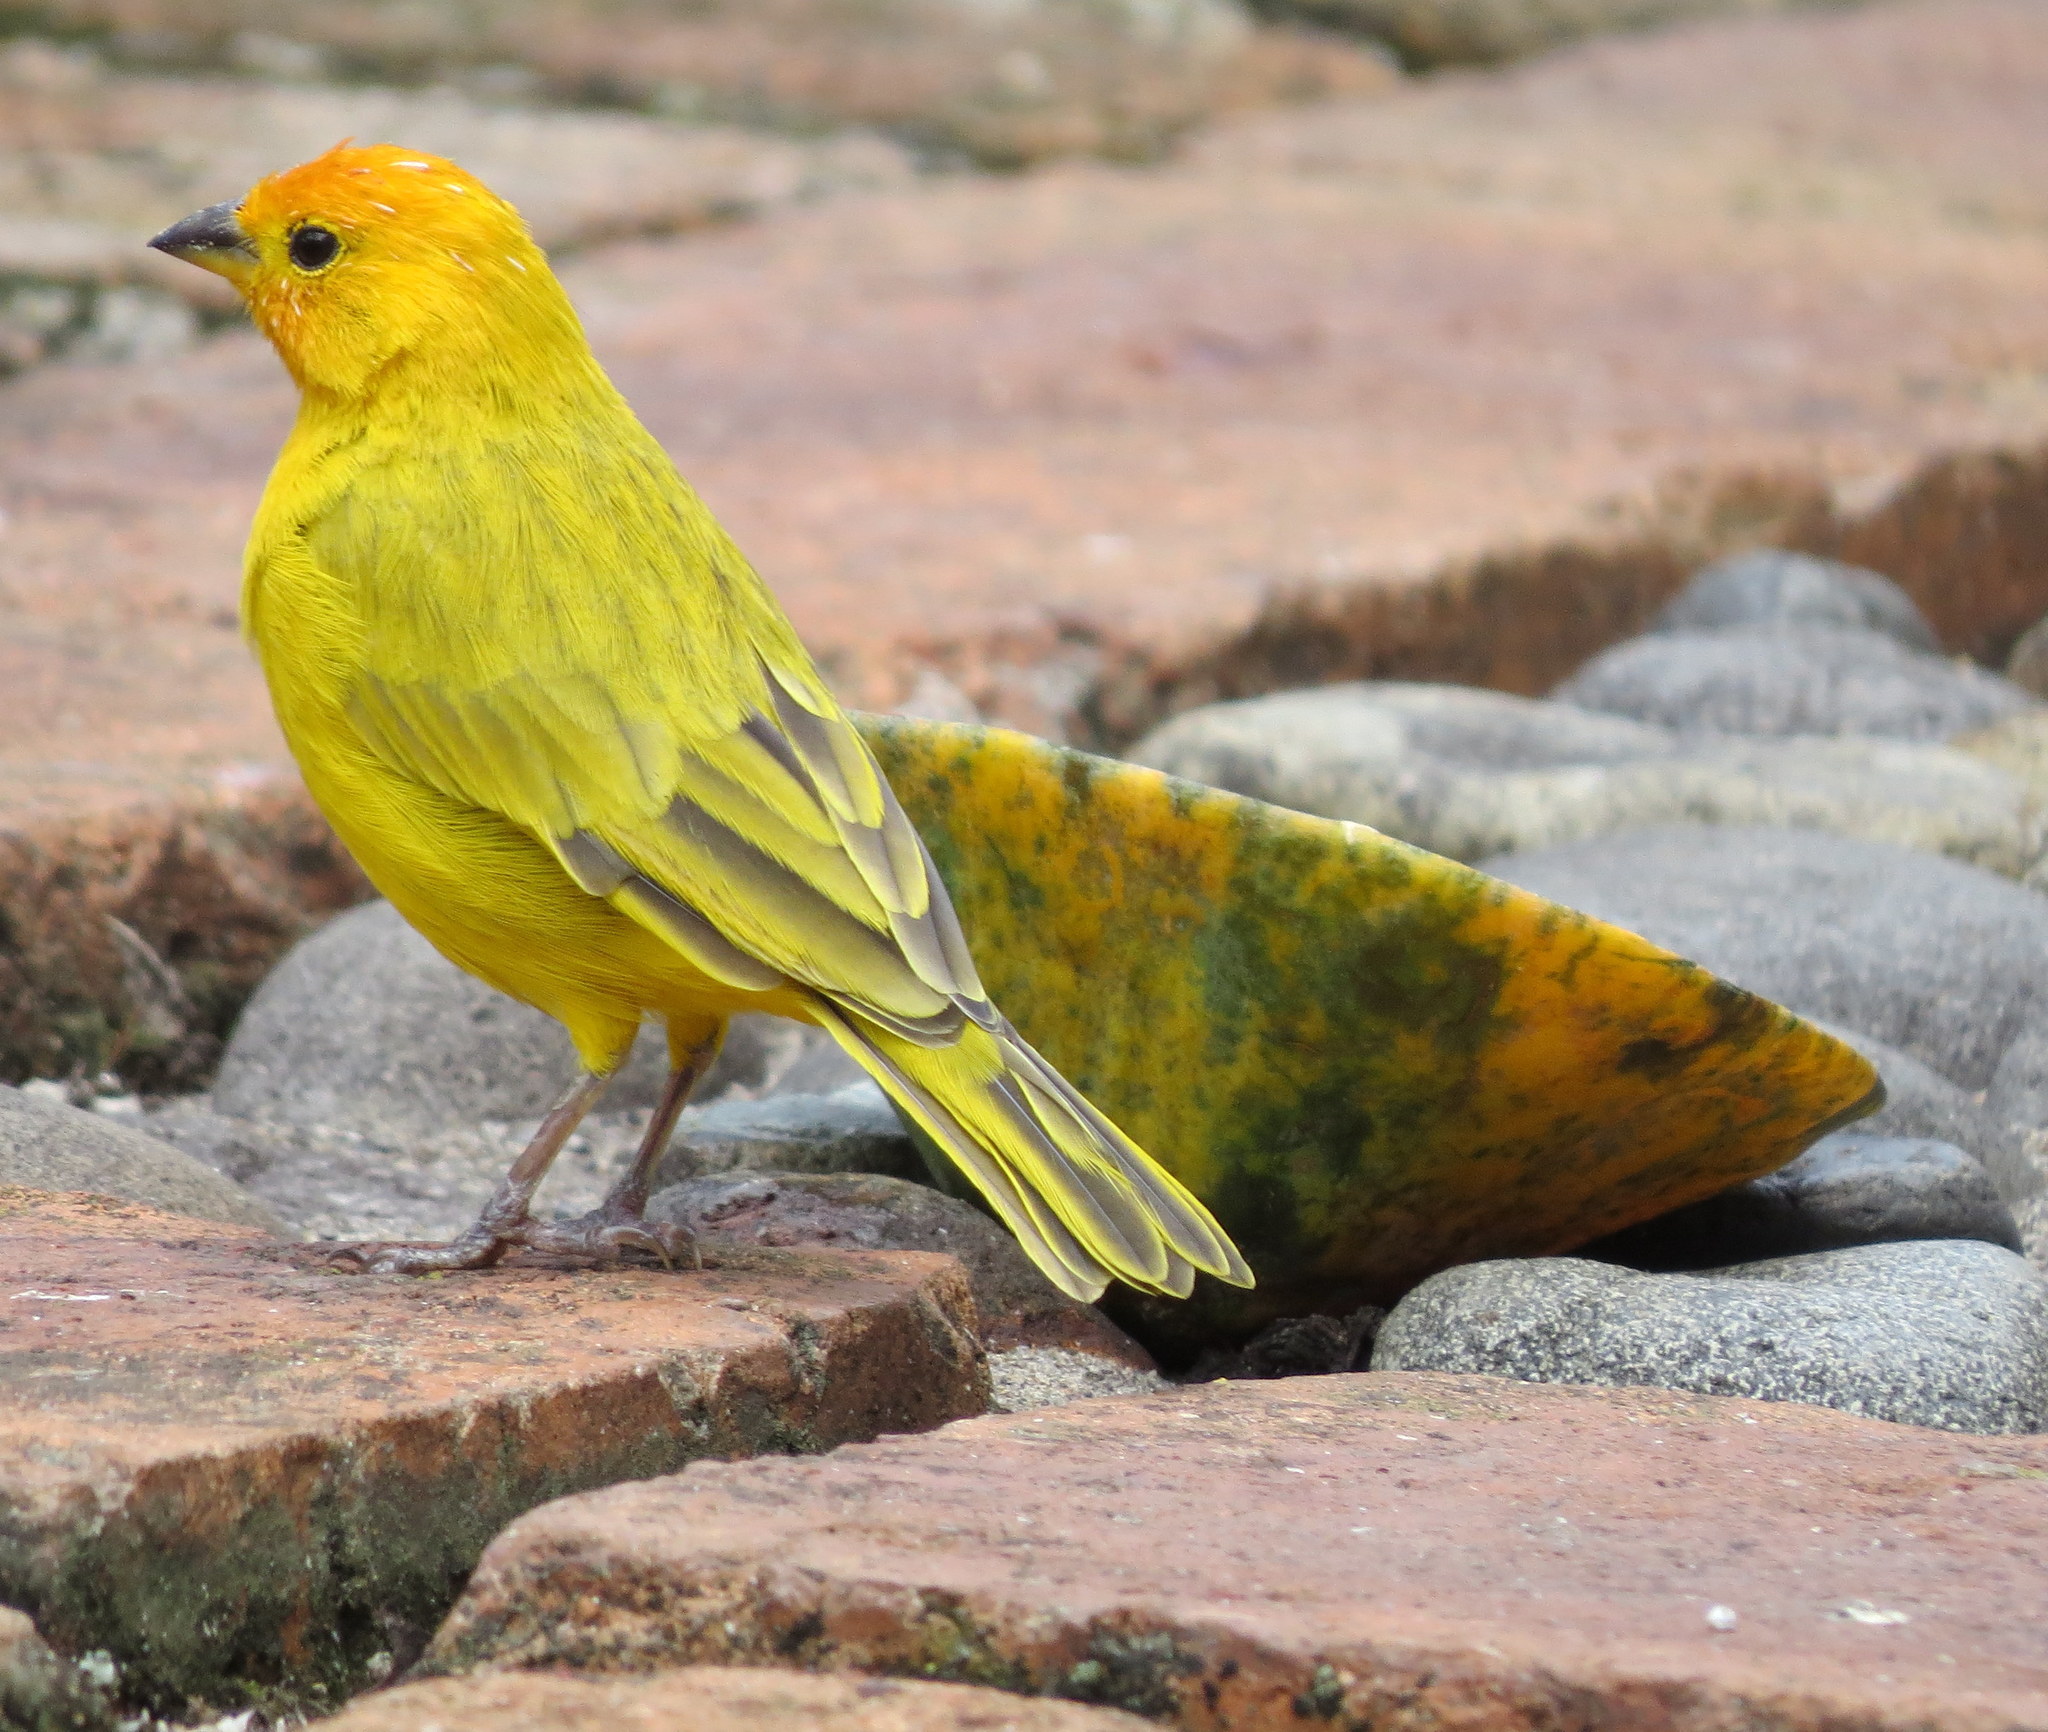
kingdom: Animalia
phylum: Chordata
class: Aves
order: Passeriformes
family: Thraupidae
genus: Sicalis
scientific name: Sicalis flaveola
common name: Saffron finch
